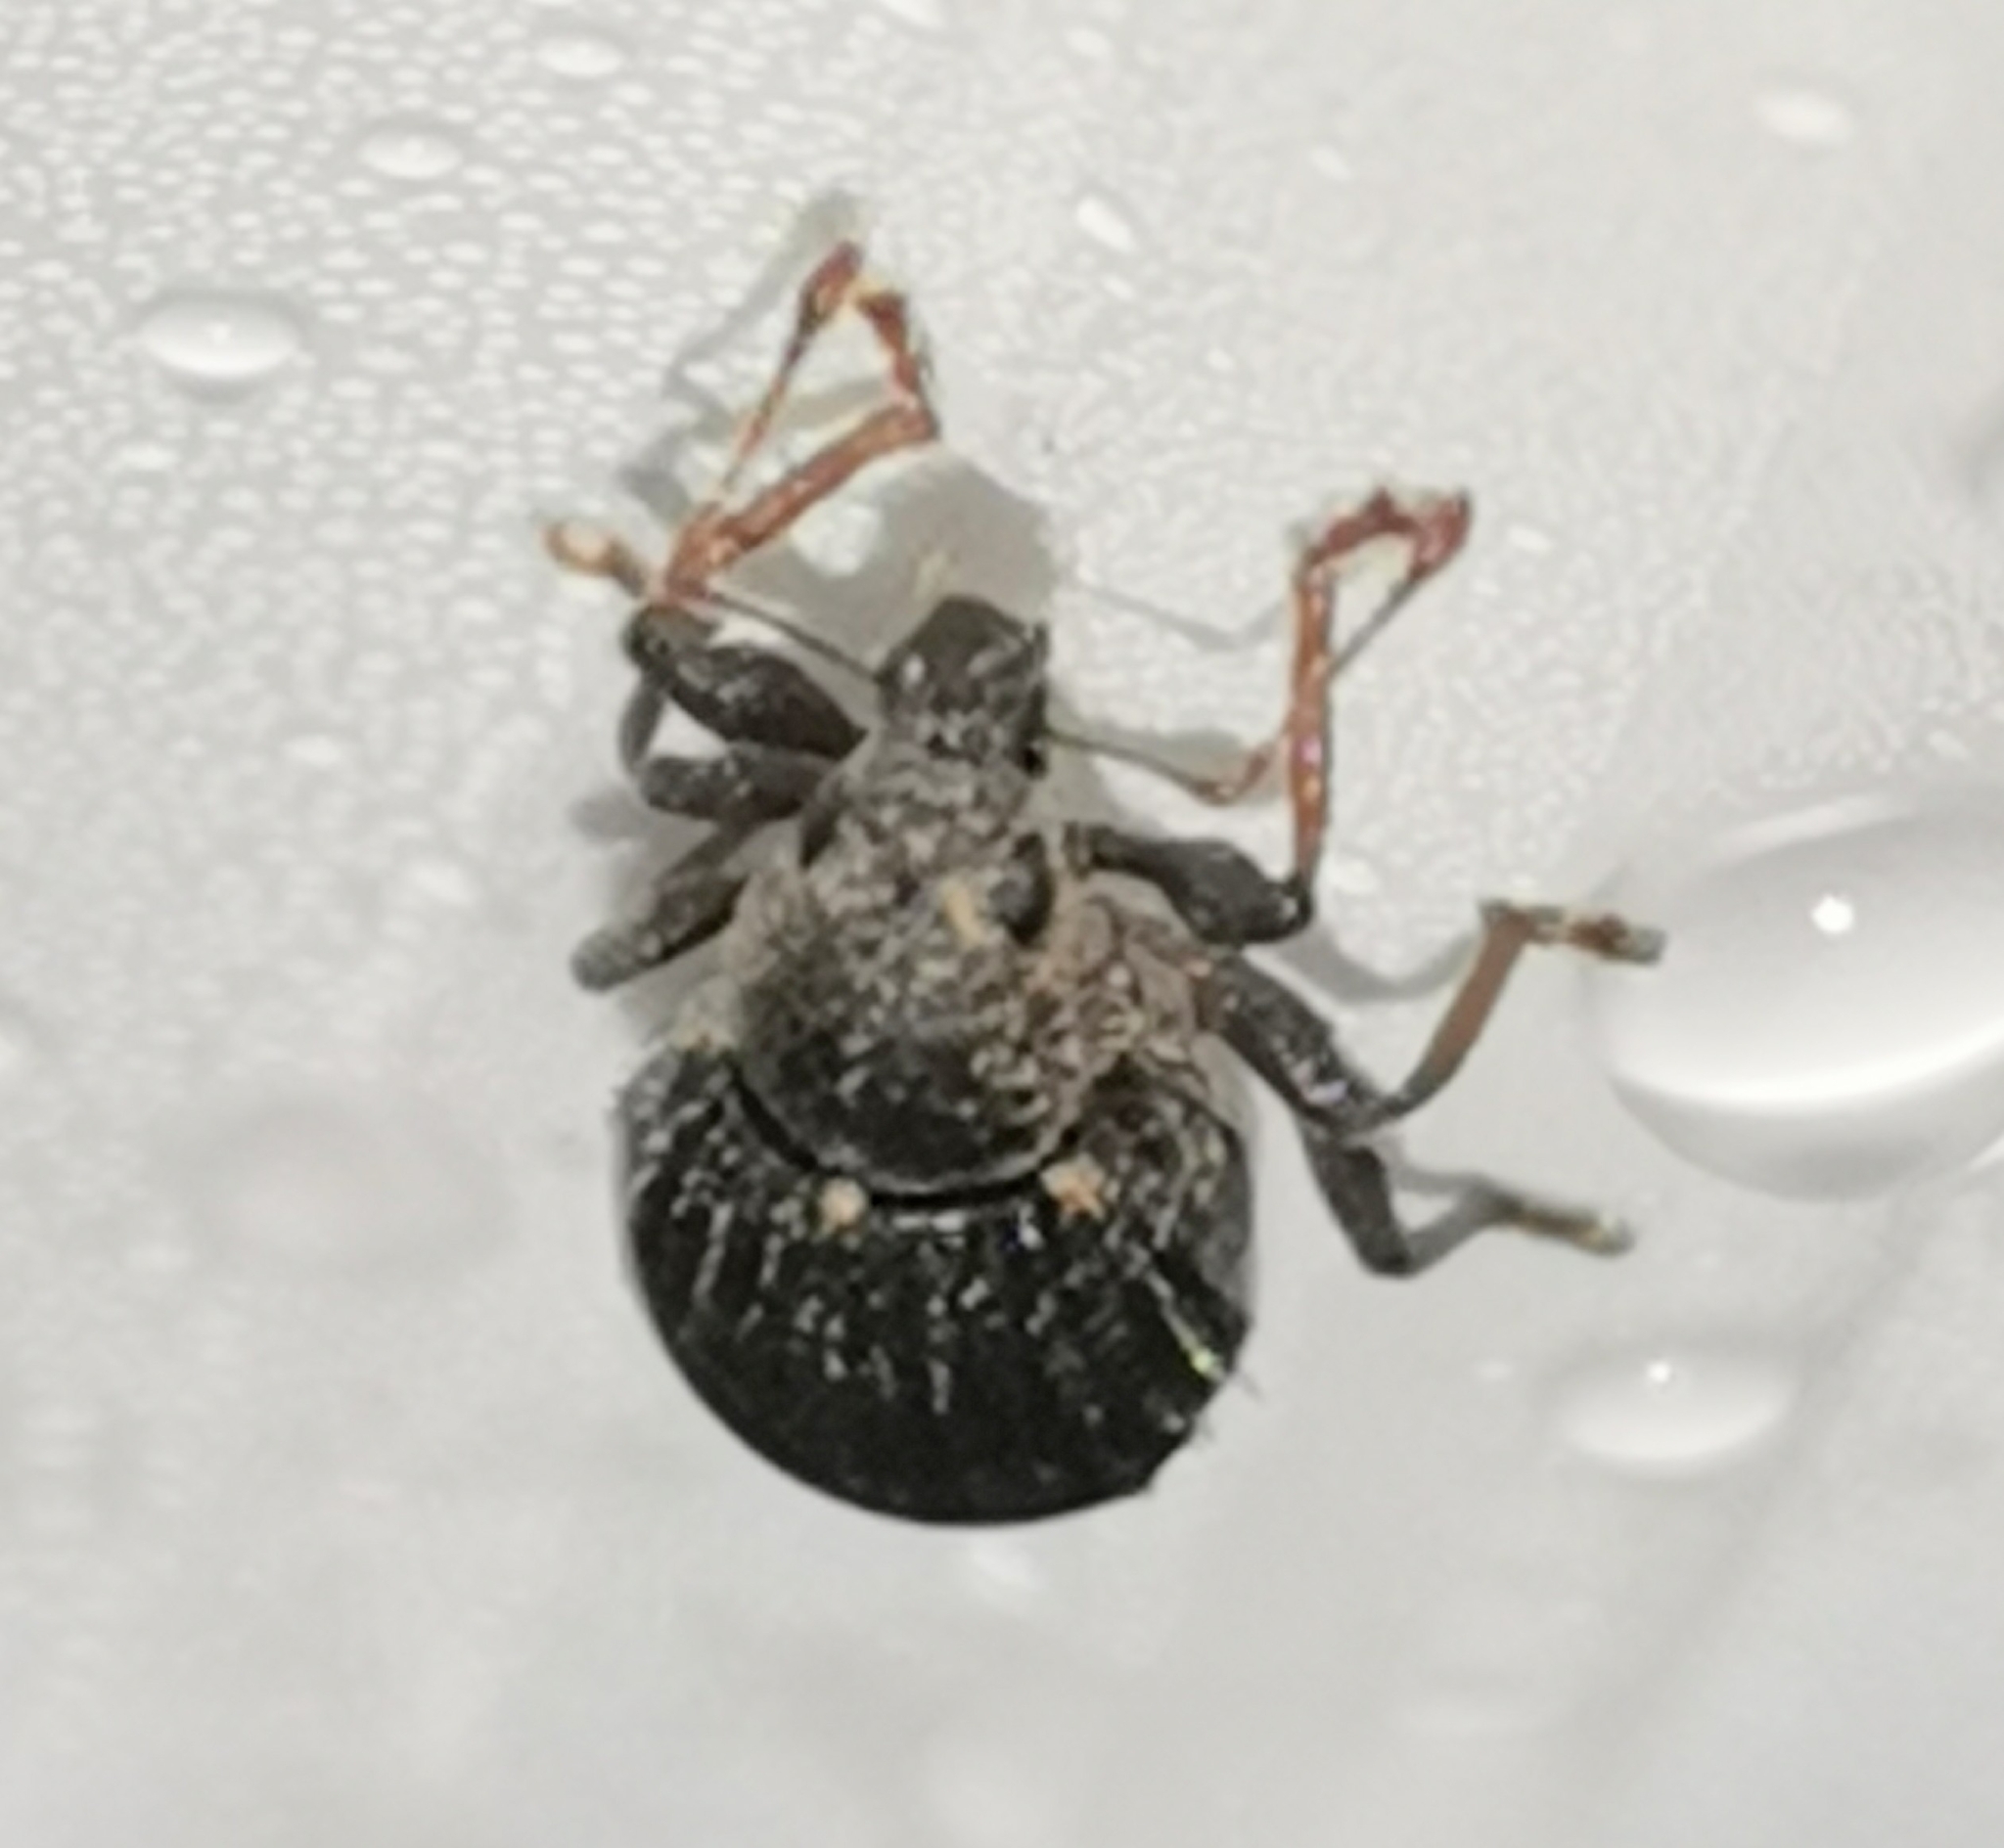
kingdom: Animalia
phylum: Arthropoda
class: Insecta
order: Coleoptera
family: Curculionidae
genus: Sciaphilus
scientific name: Sciaphilus asperatus
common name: Weevil
